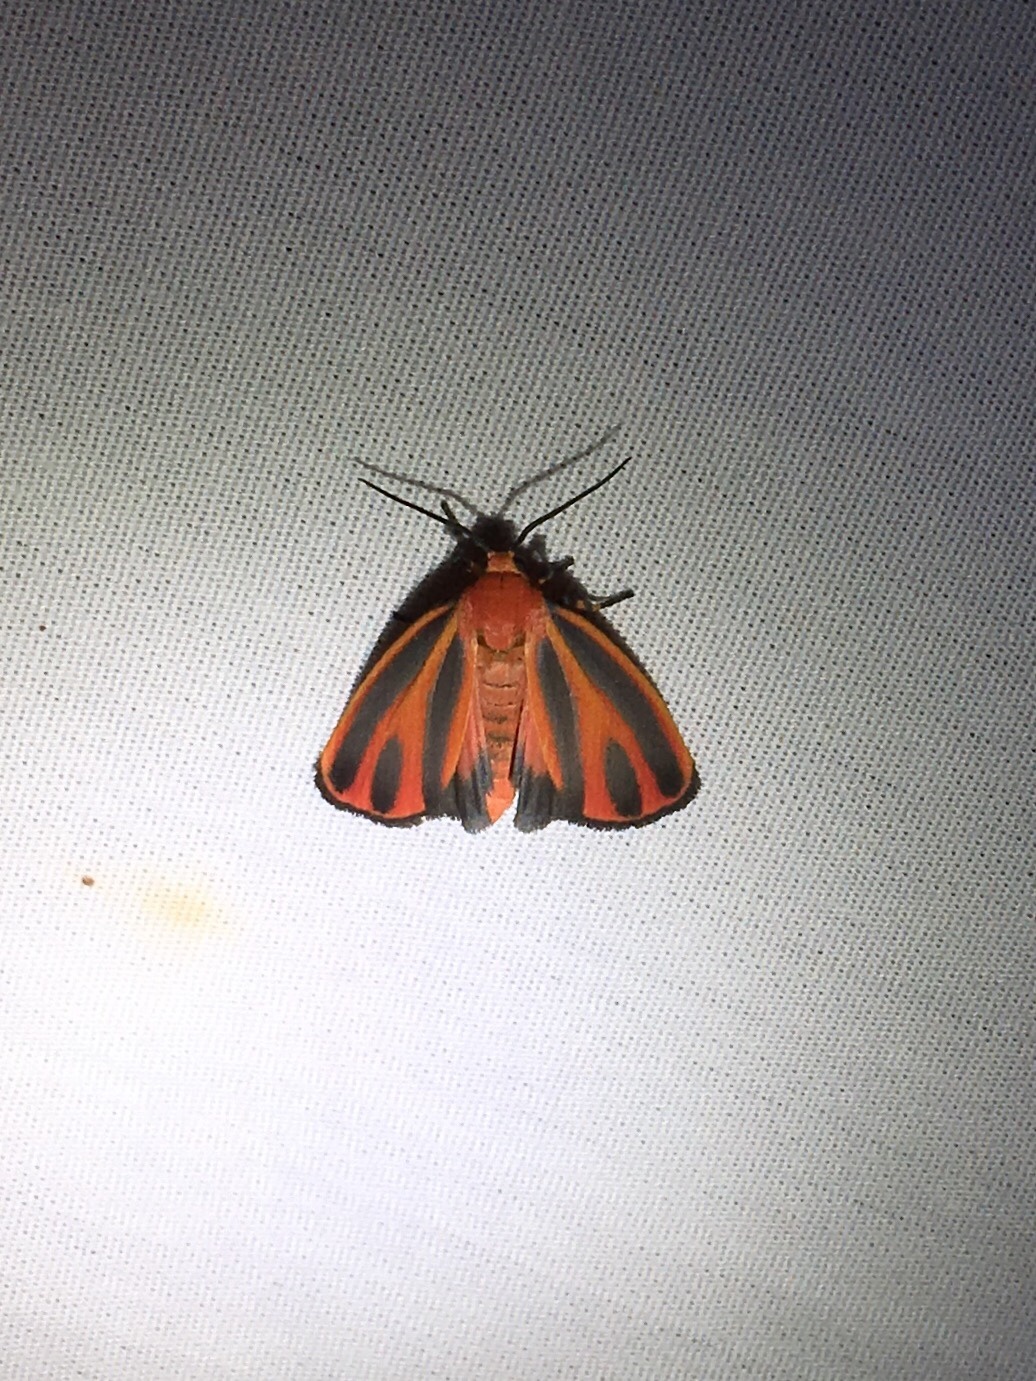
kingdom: Animalia
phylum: Arthropoda
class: Insecta
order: Lepidoptera
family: Erebidae
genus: Hypoprepia
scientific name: Hypoprepia miniata
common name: Scarlet-winged lichen moth
